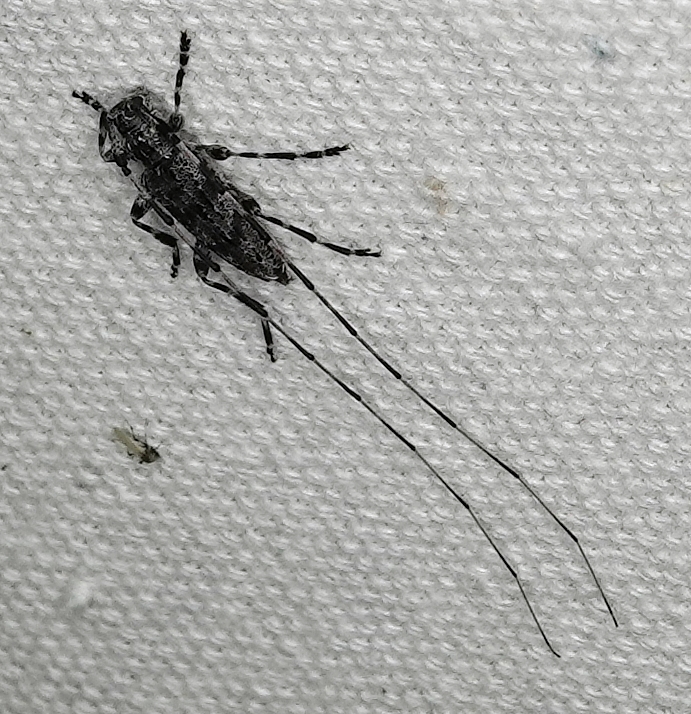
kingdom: Animalia
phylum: Arthropoda
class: Insecta
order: Coleoptera
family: Cerambycidae
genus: Acanthocinus
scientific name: Acanthocinus obliquus
